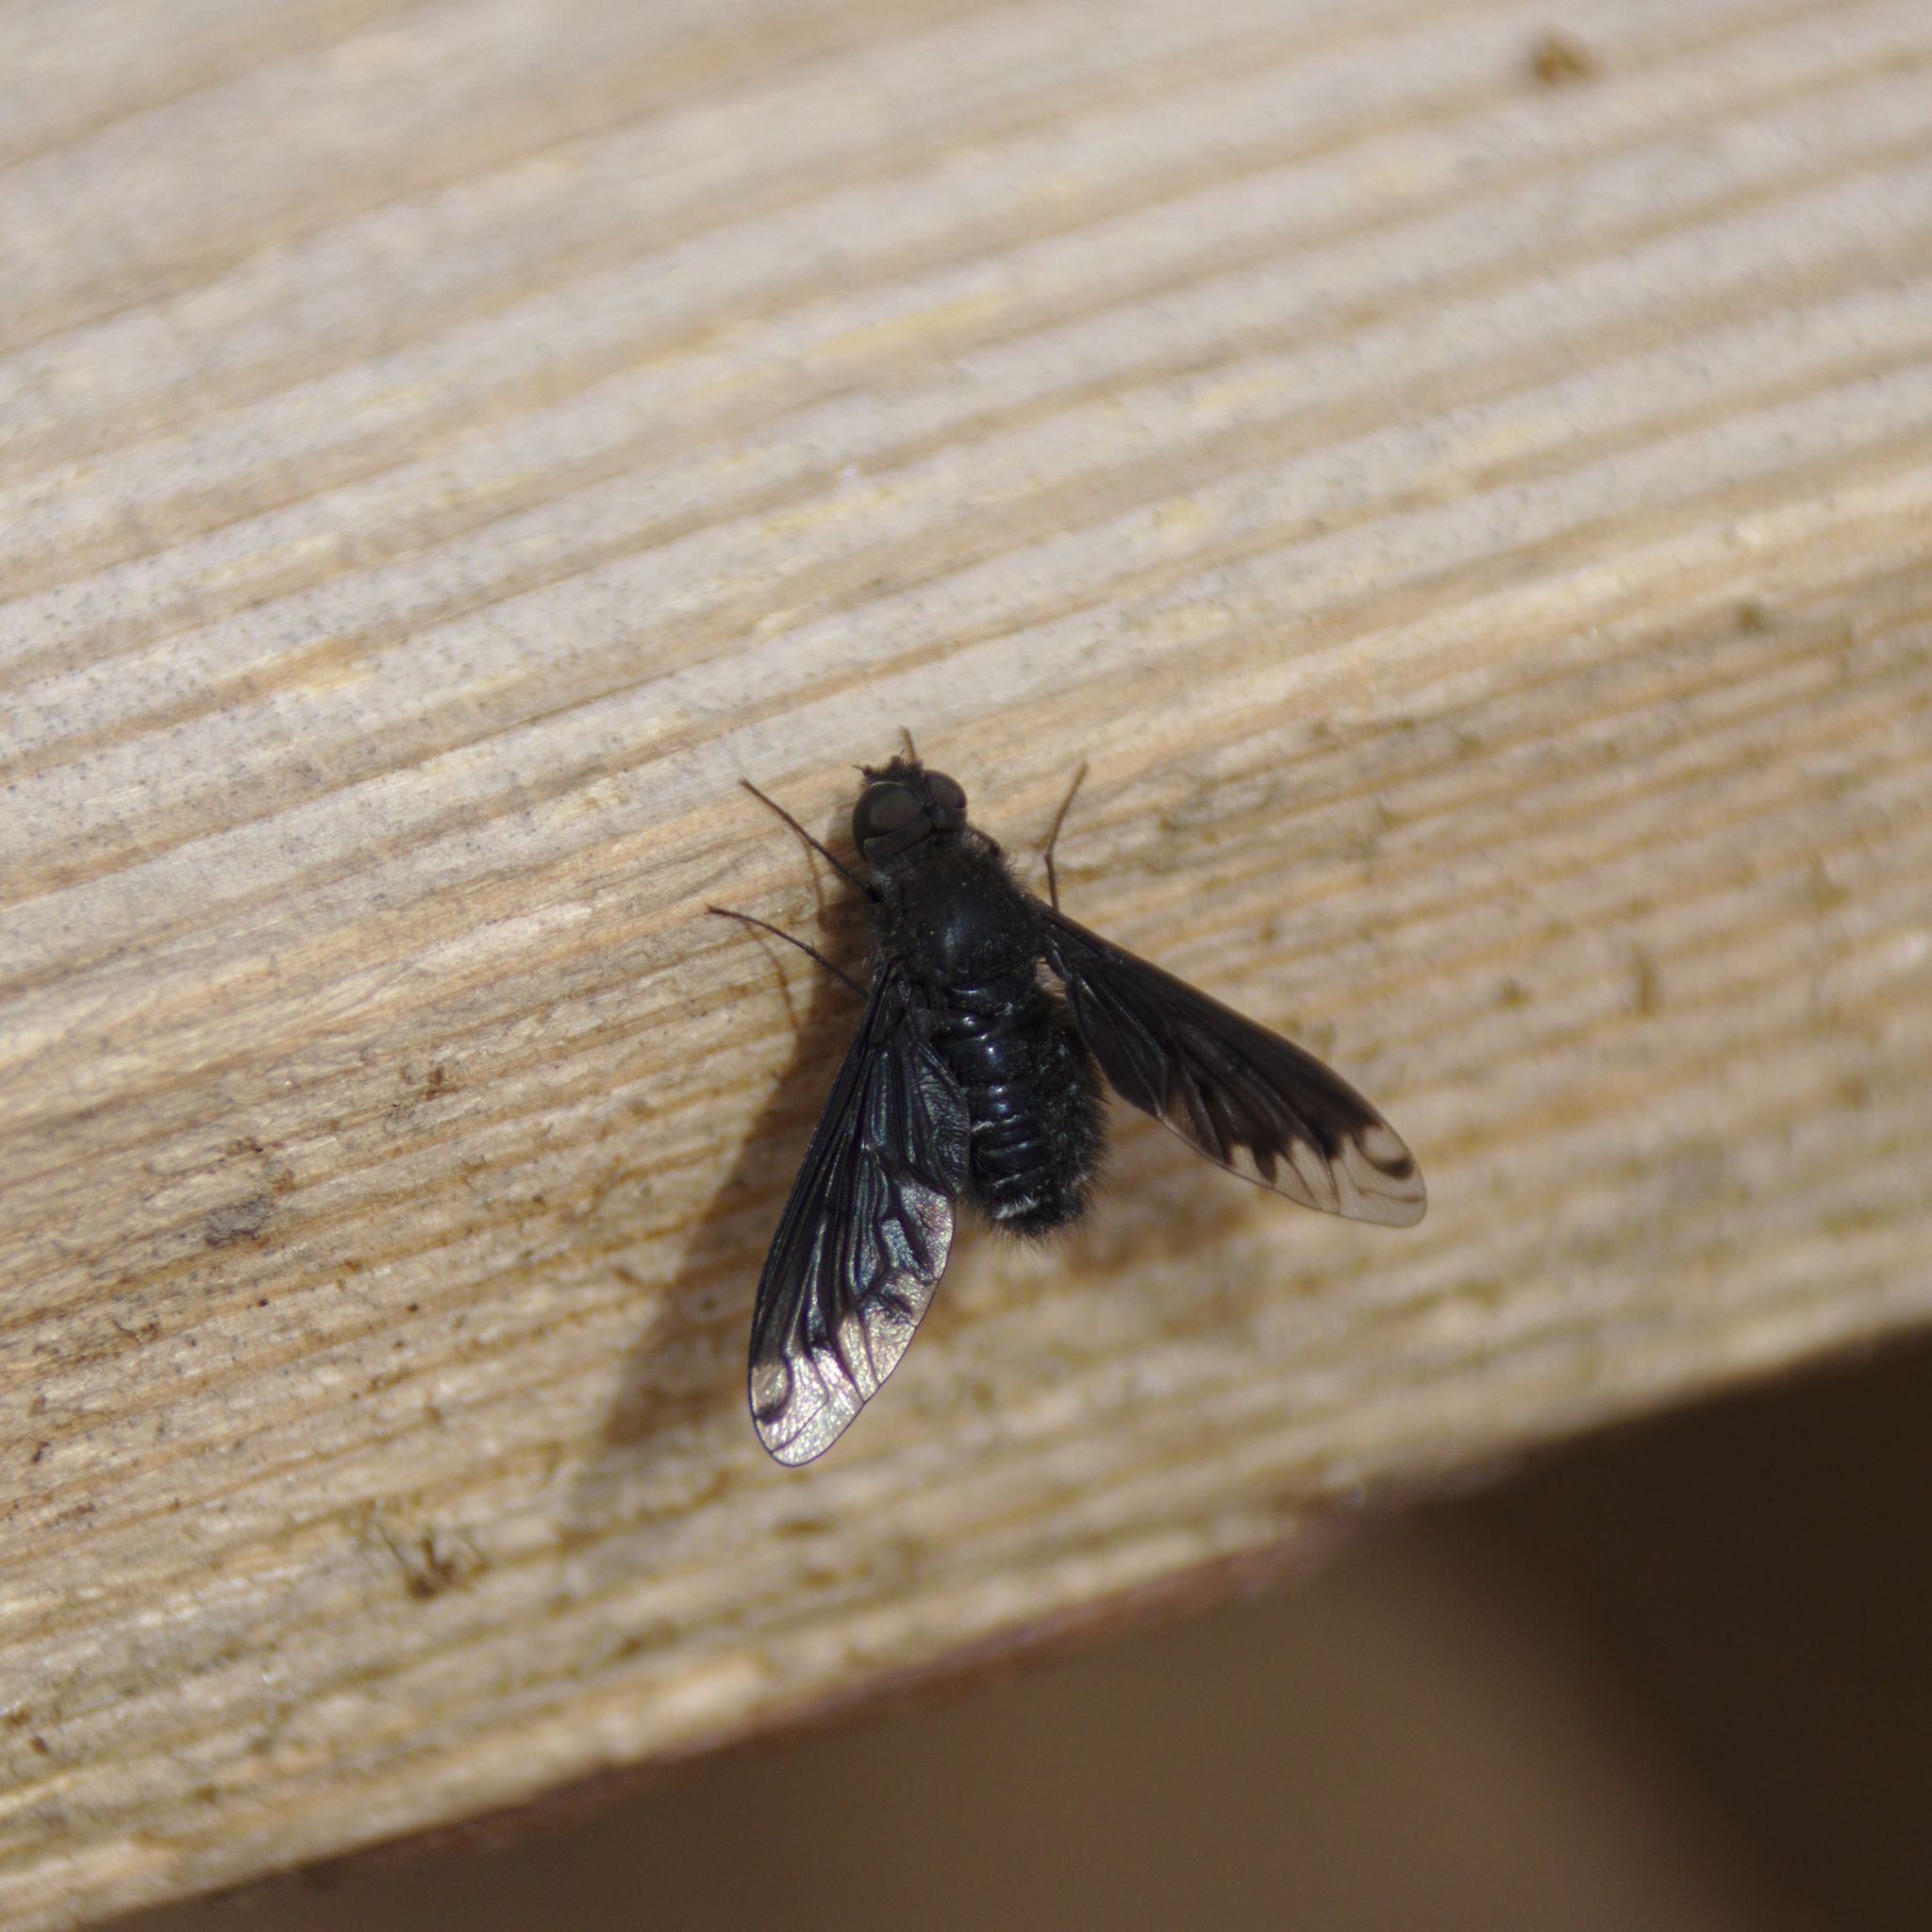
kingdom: Animalia
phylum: Arthropoda
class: Insecta
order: Diptera
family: Bombyliidae
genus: Anthrax
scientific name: Anthrax anthrax
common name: Anthracite bee-fly
